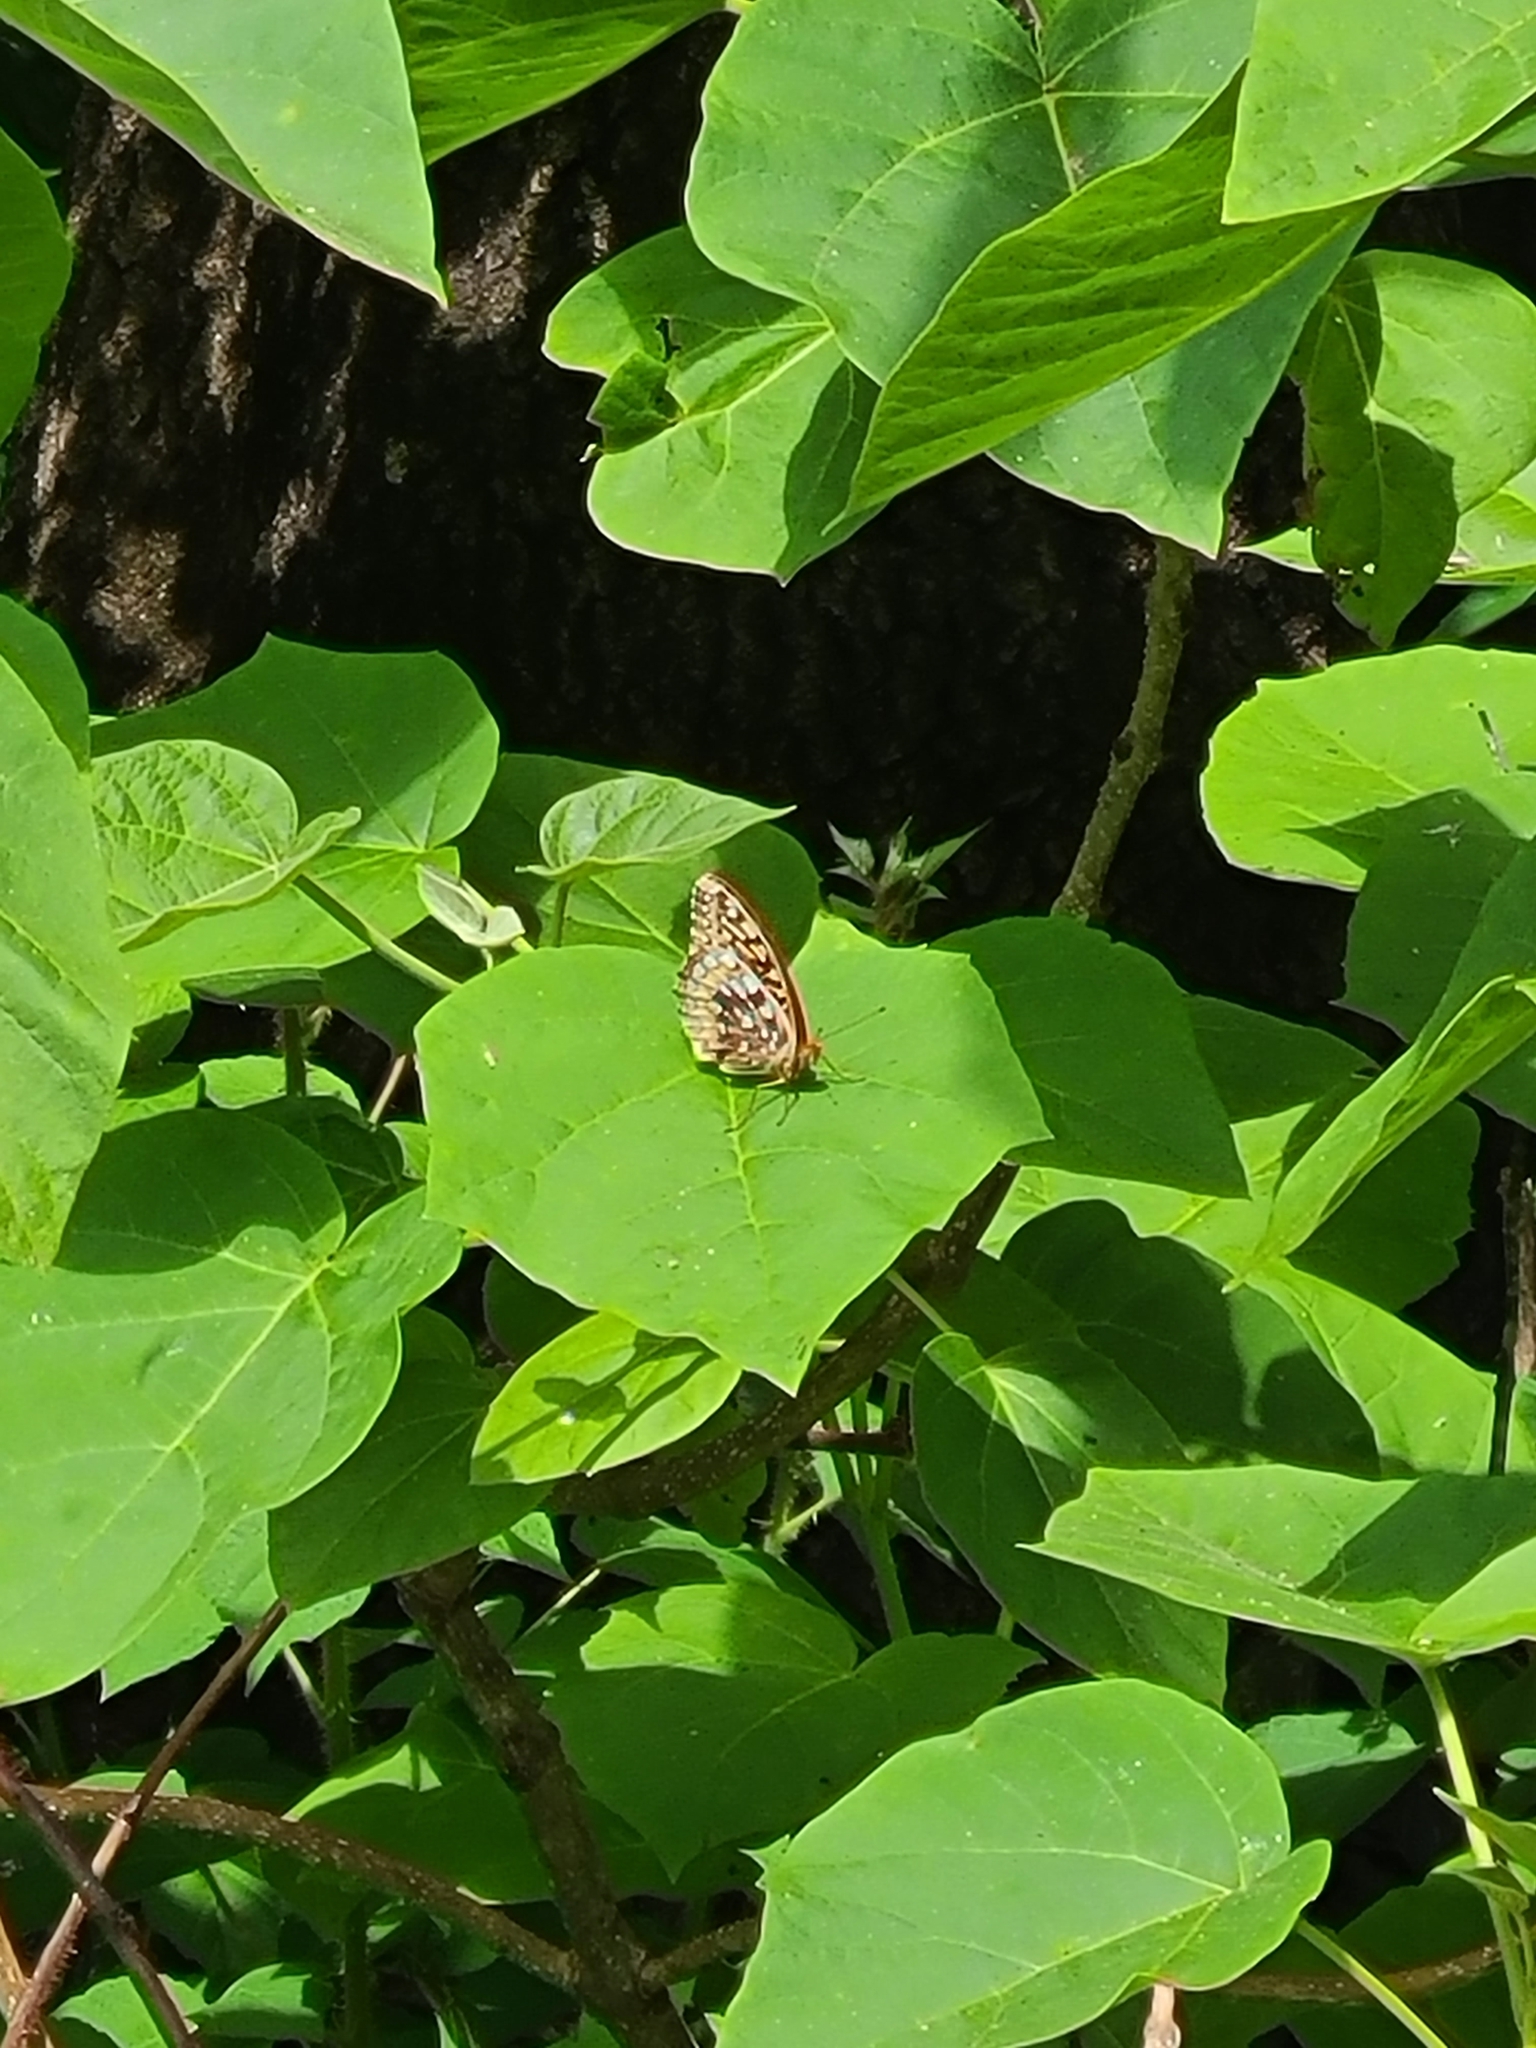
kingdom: Animalia
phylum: Arthropoda
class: Insecta
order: Lepidoptera
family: Nymphalidae
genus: Speyeria
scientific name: Speyeria cybele
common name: Great spangled fritillary
